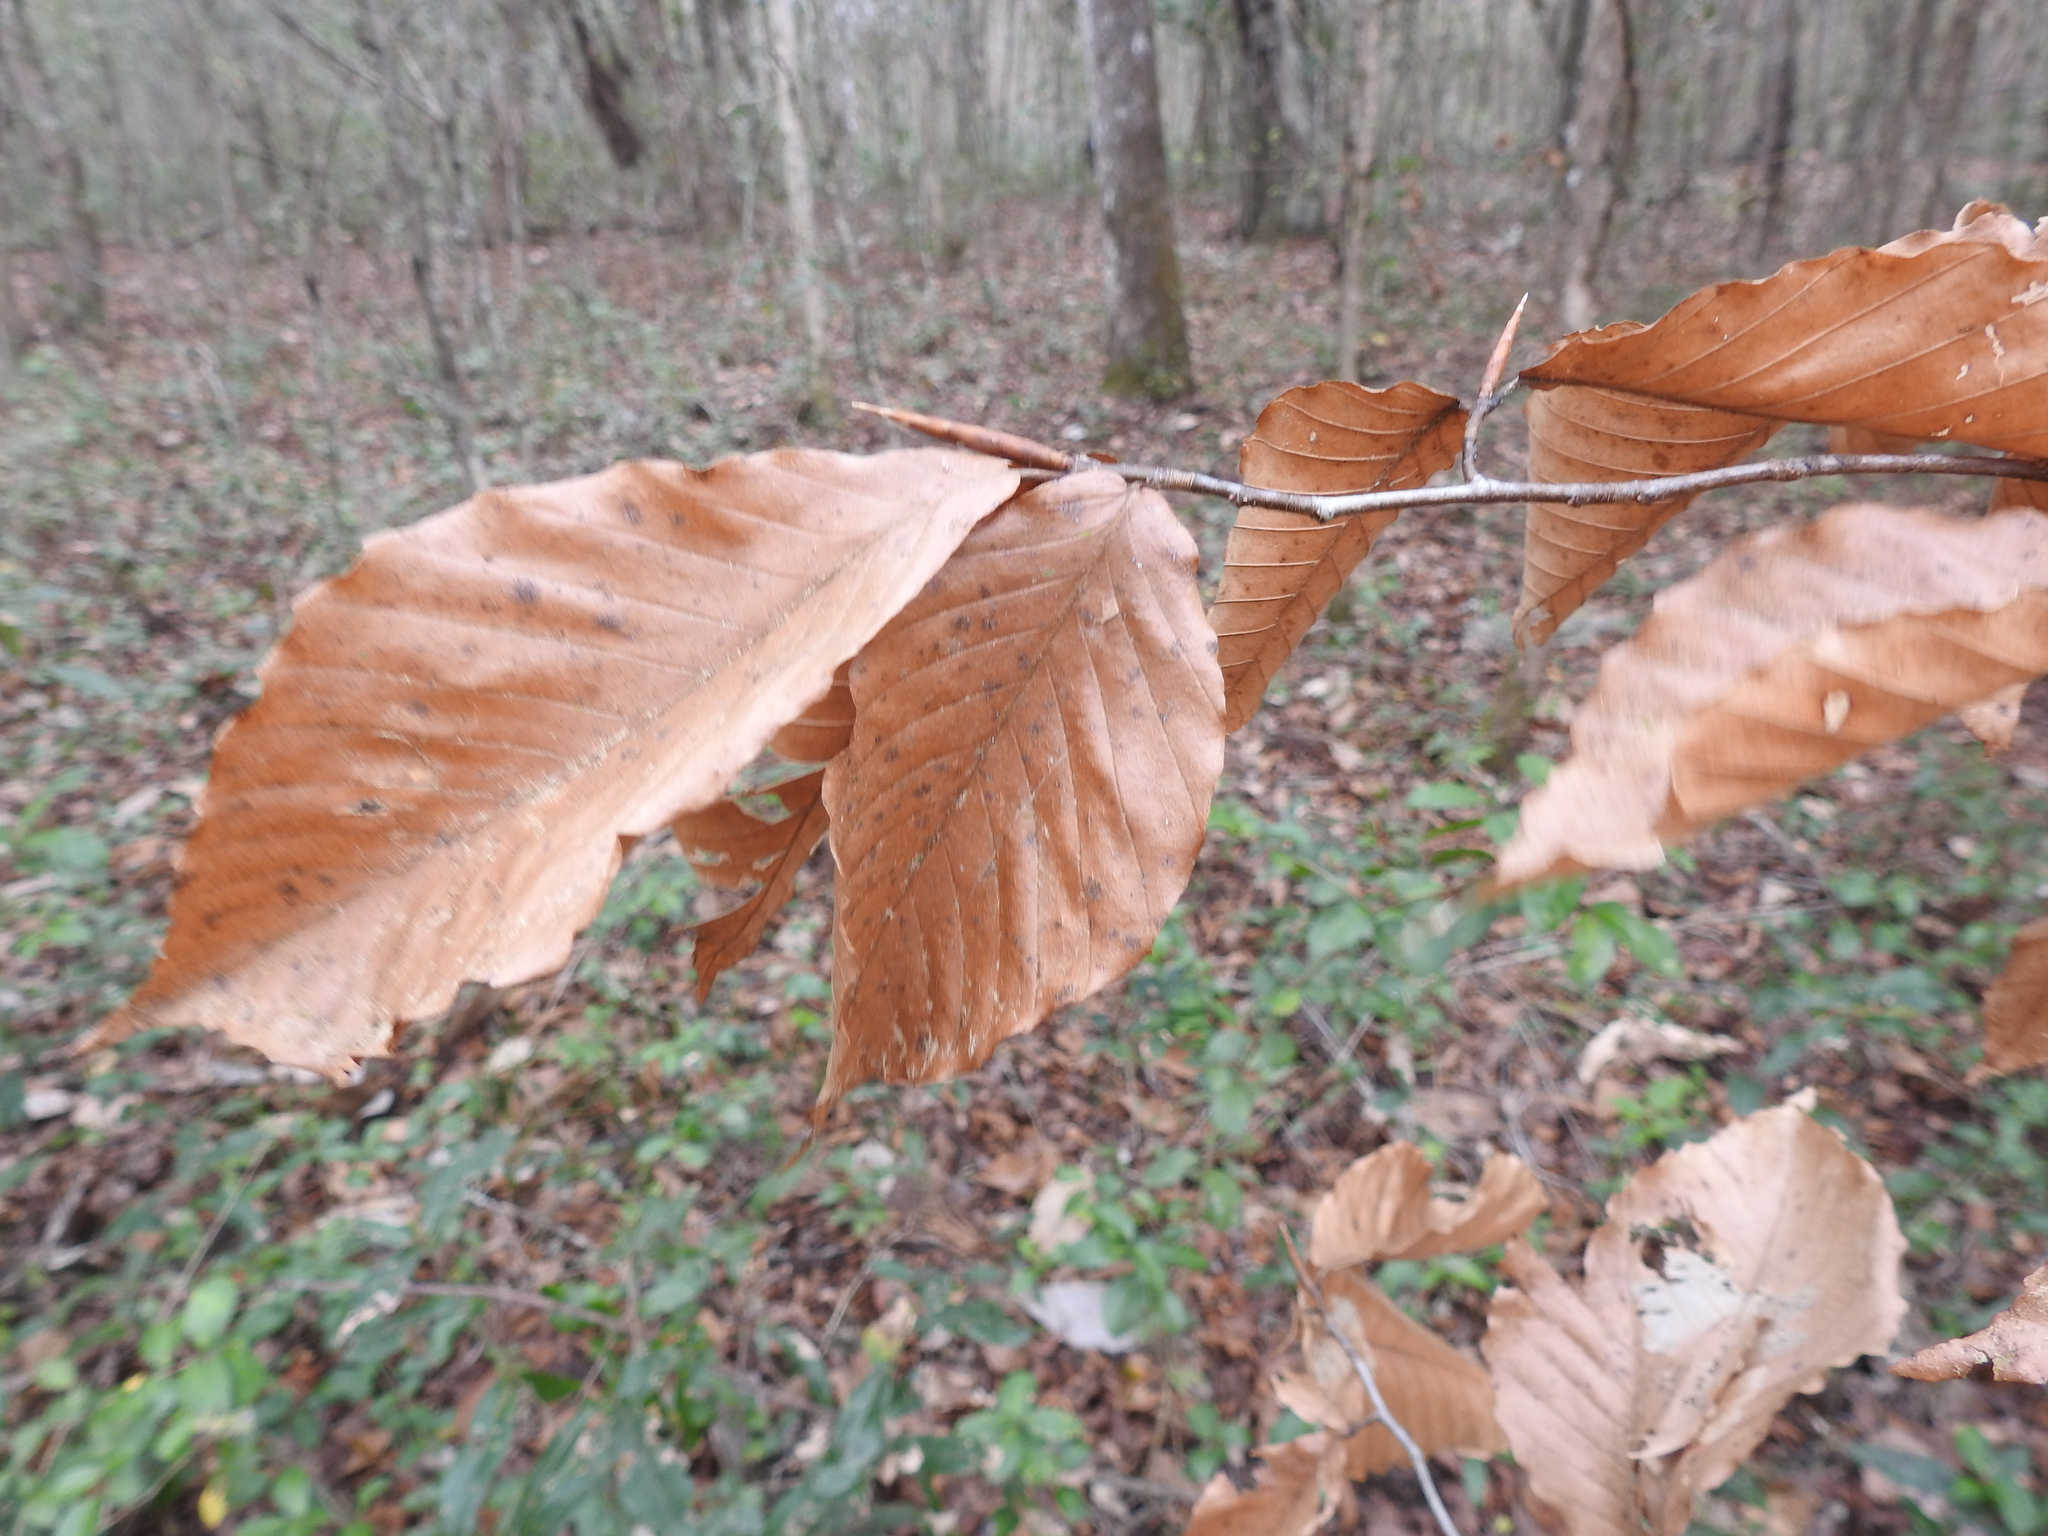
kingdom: Plantae
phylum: Tracheophyta
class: Magnoliopsida
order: Fagales
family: Fagaceae
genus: Fagus
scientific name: Fagus grandifolia
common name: American beech
